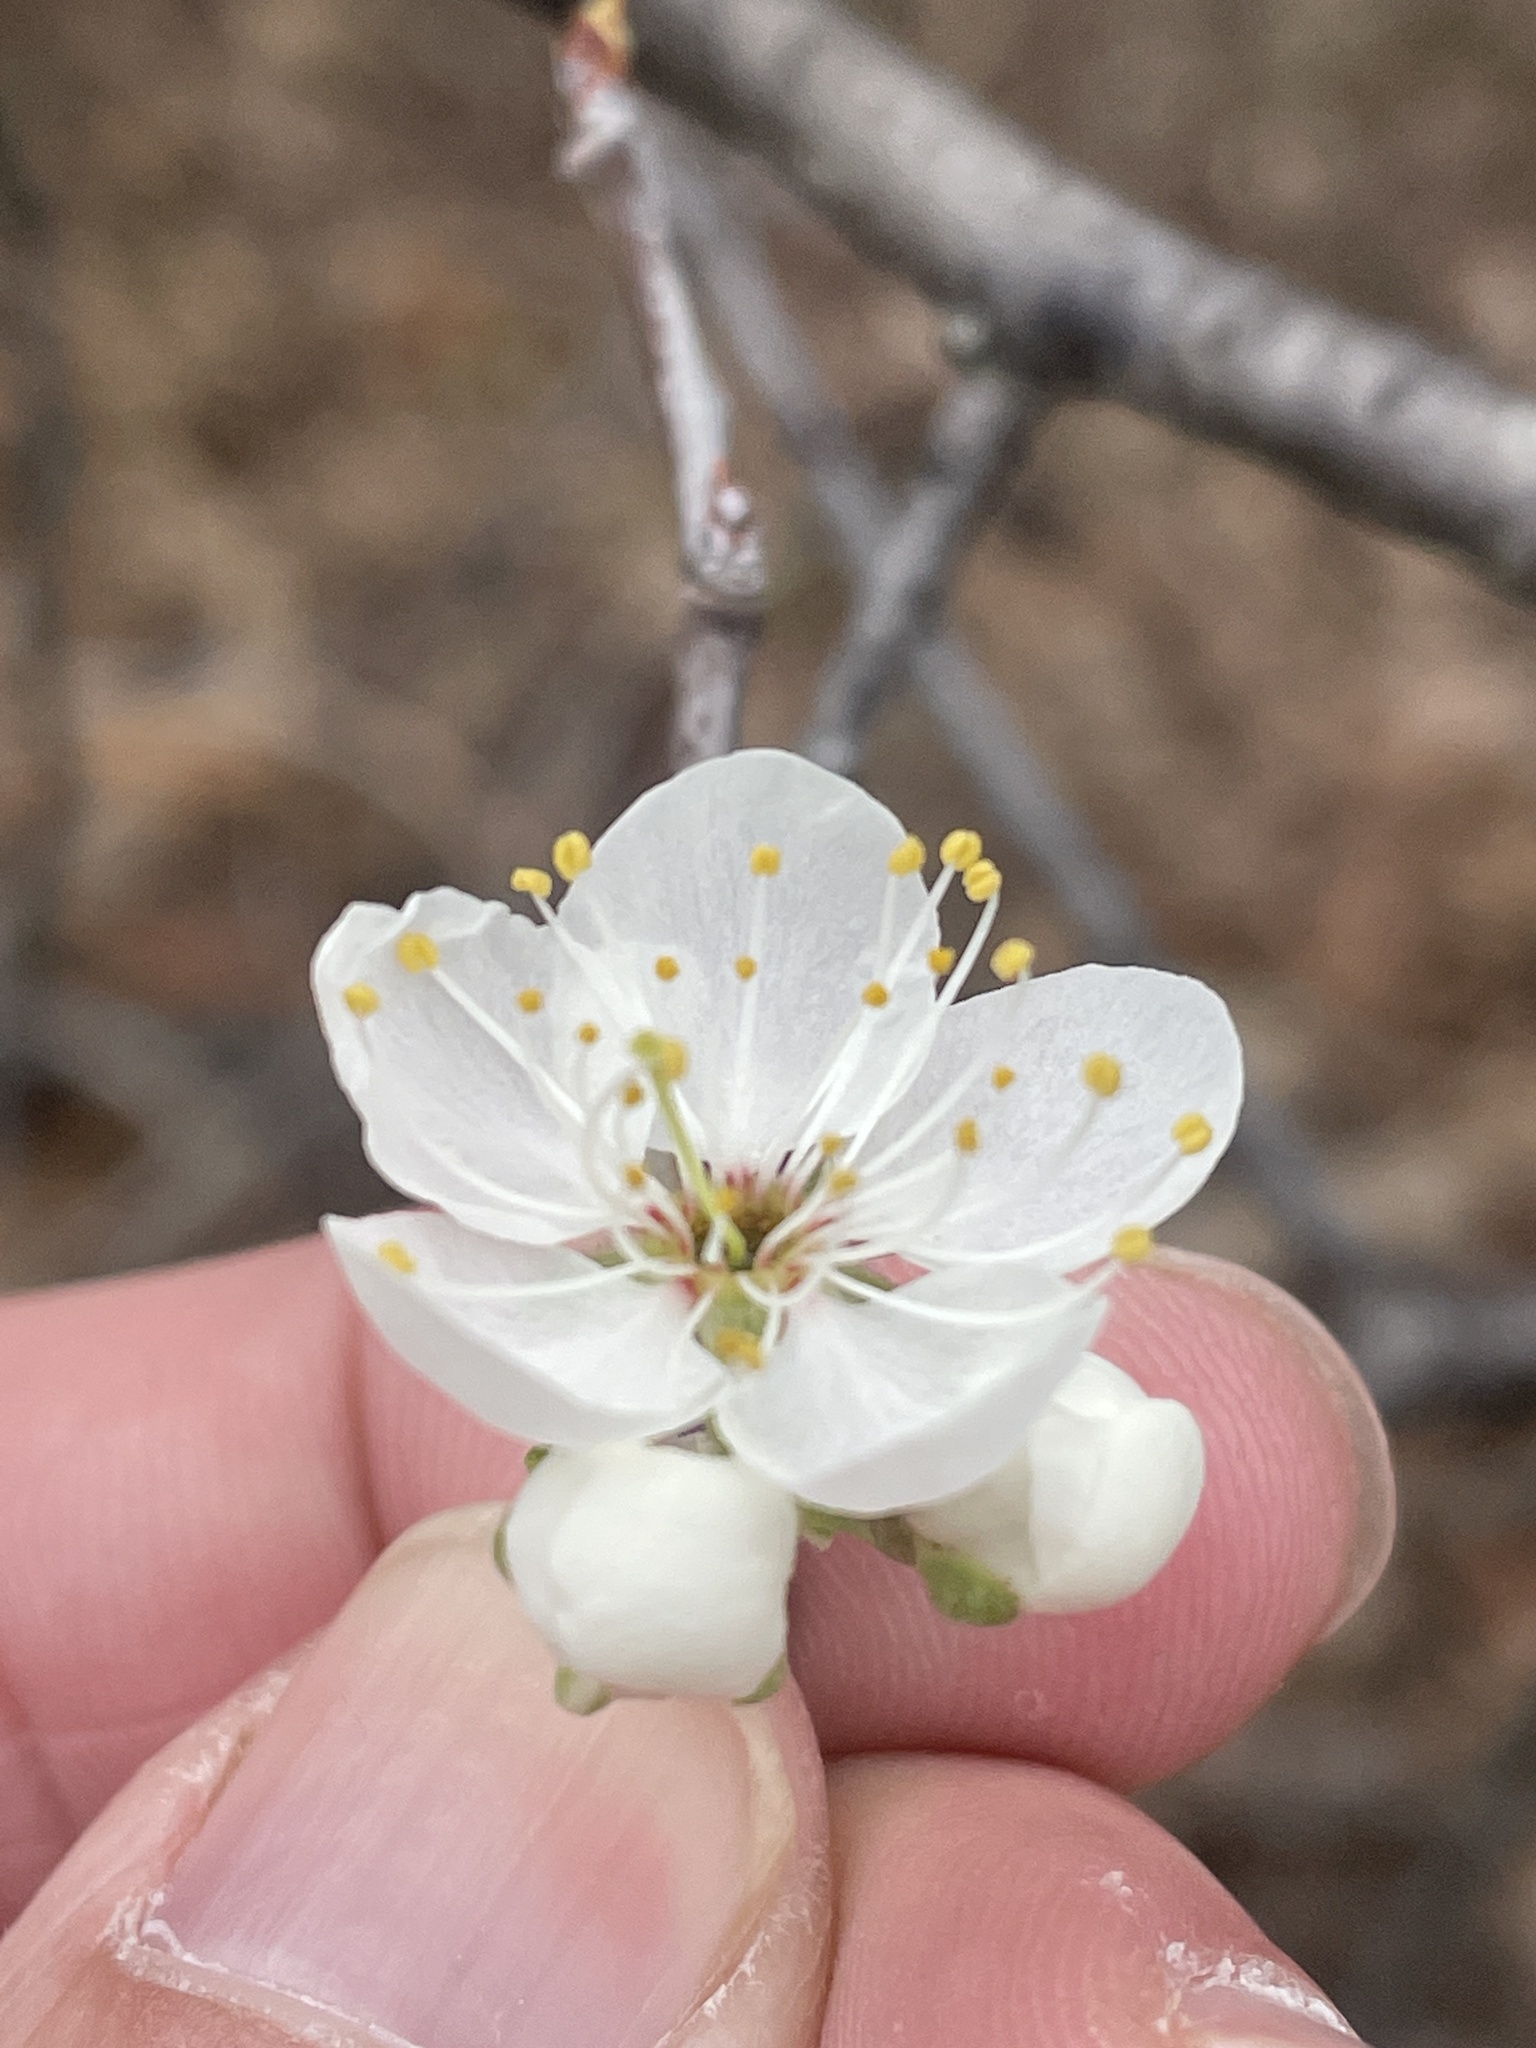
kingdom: Plantae
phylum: Tracheophyta
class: Magnoliopsida
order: Rosales
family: Rosaceae
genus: Prunus
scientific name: Prunus mexicana
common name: Mexican plum
